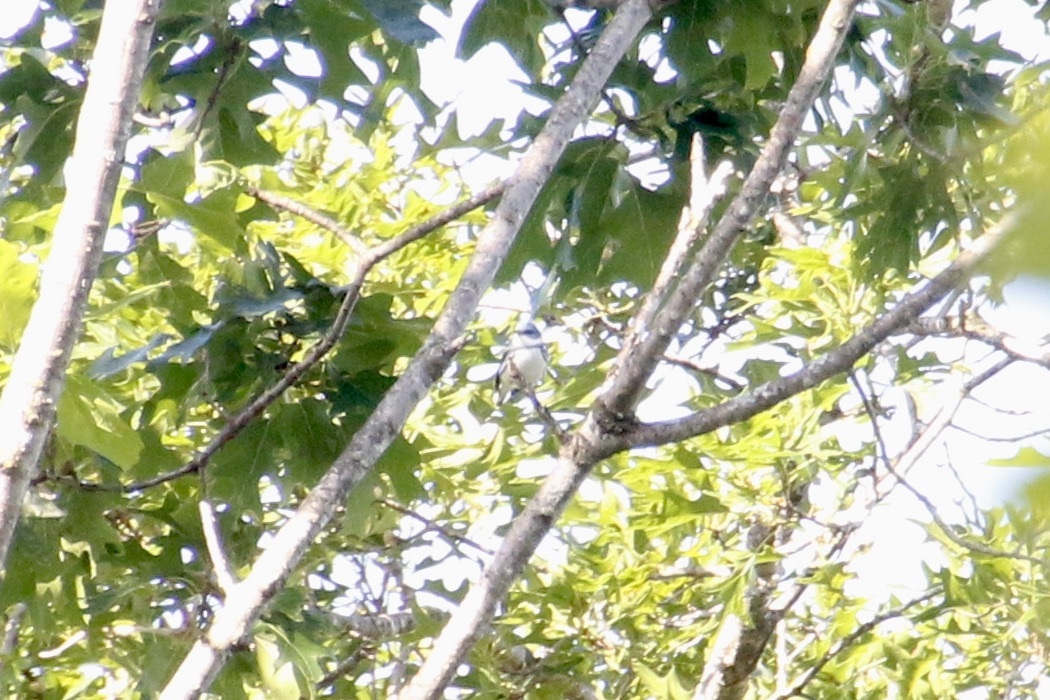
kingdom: Animalia
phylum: Chordata
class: Aves
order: Passeriformes
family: Parulidae
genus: Setophaga
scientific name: Setophaga cerulea
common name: Cerulean warbler
